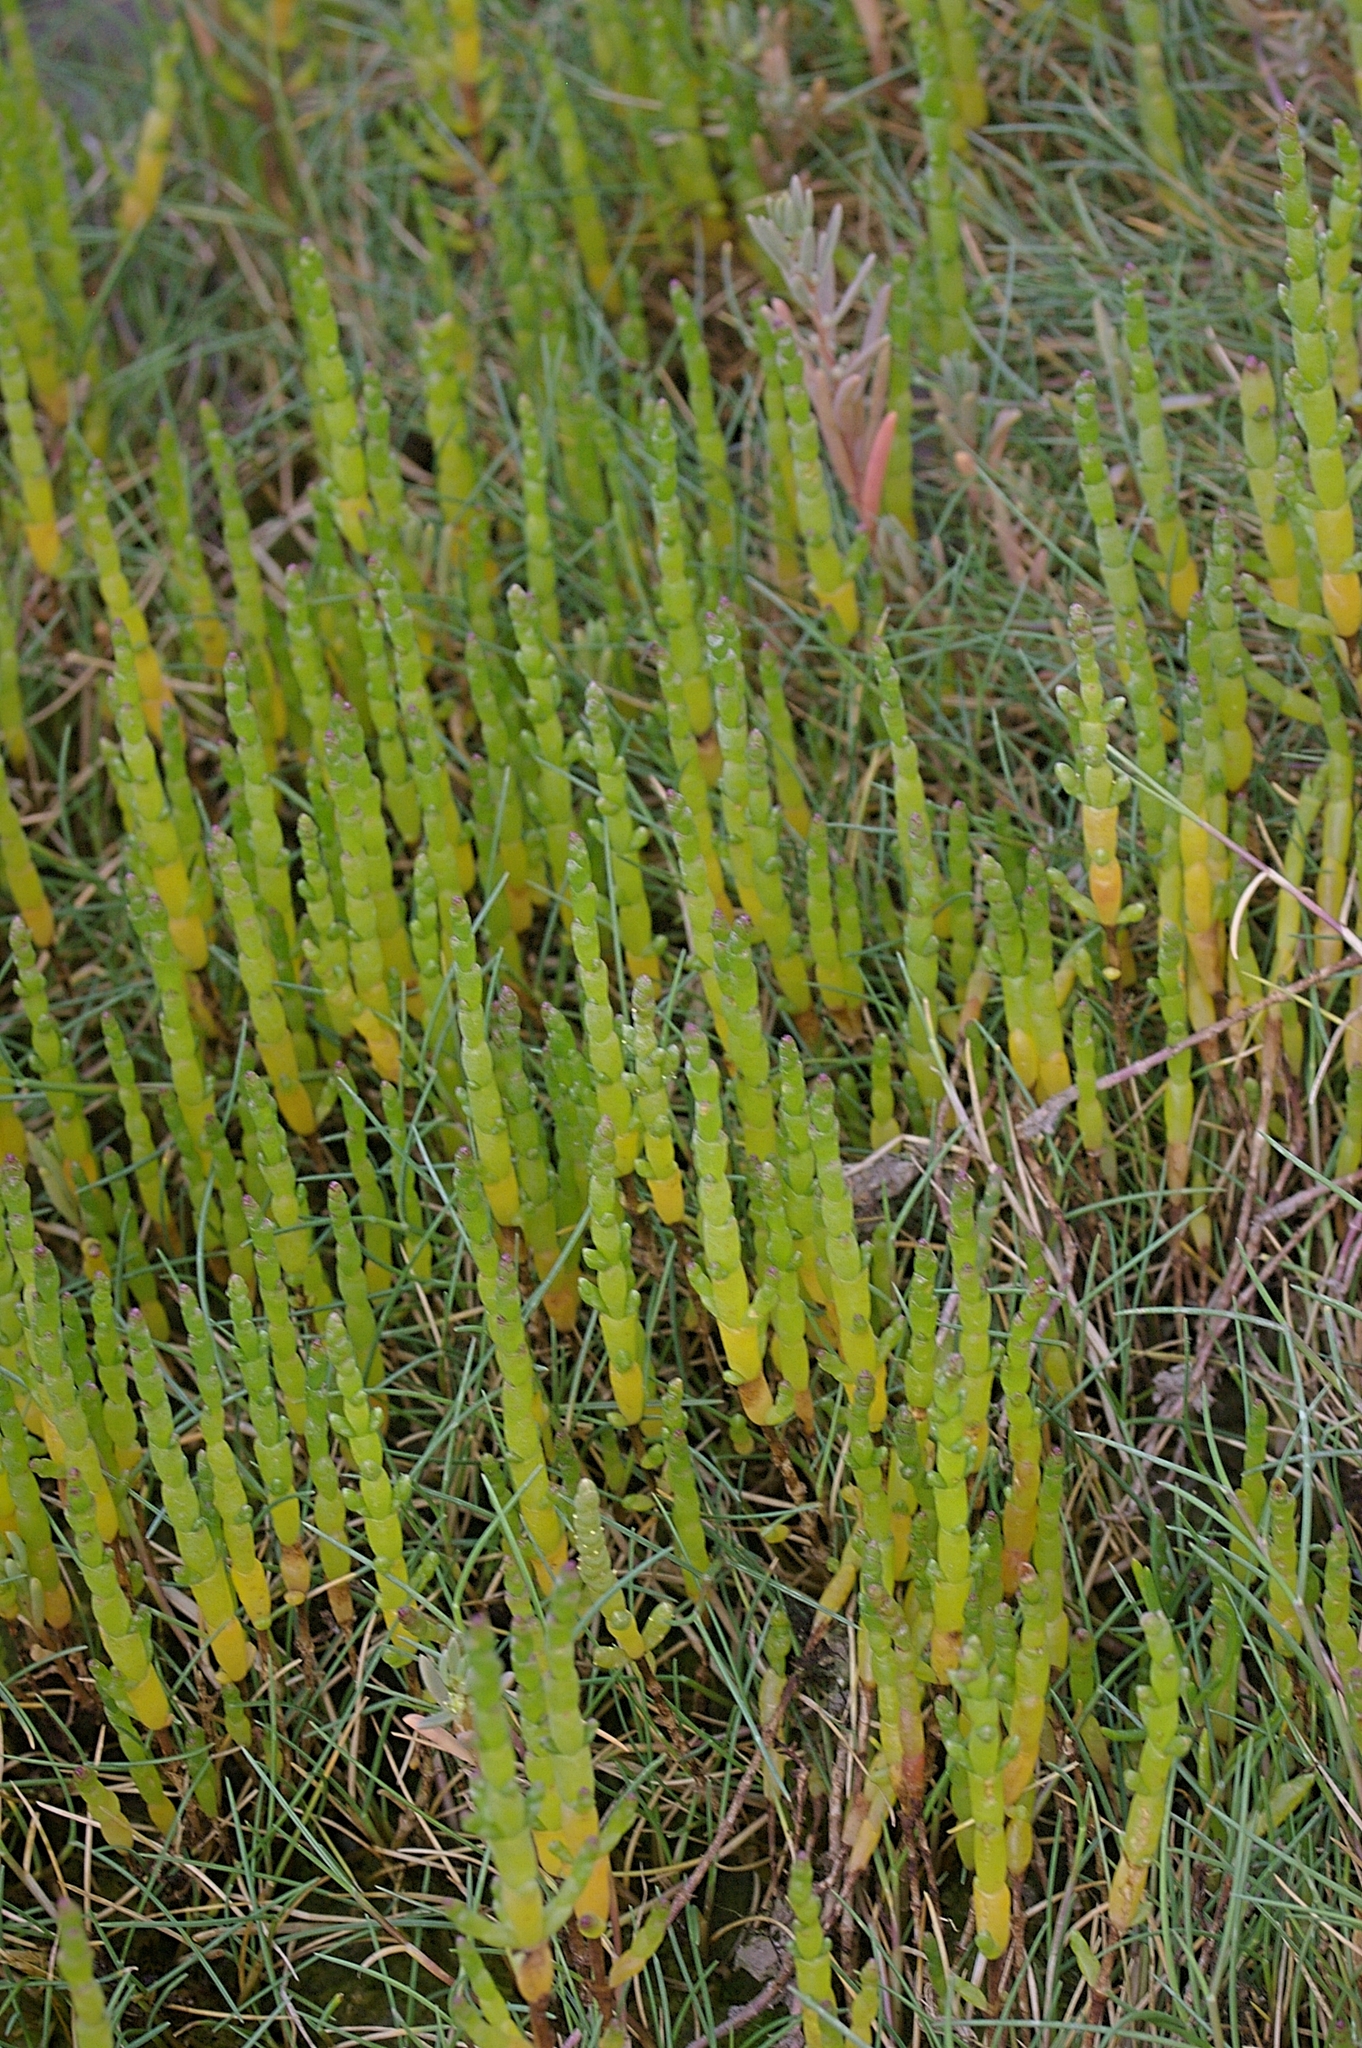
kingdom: Plantae
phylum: Tracheophyta
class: Magnoliopsida
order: Caryophyllales
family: Amaranthaceae
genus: Salicornia
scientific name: Salicornia europaea
